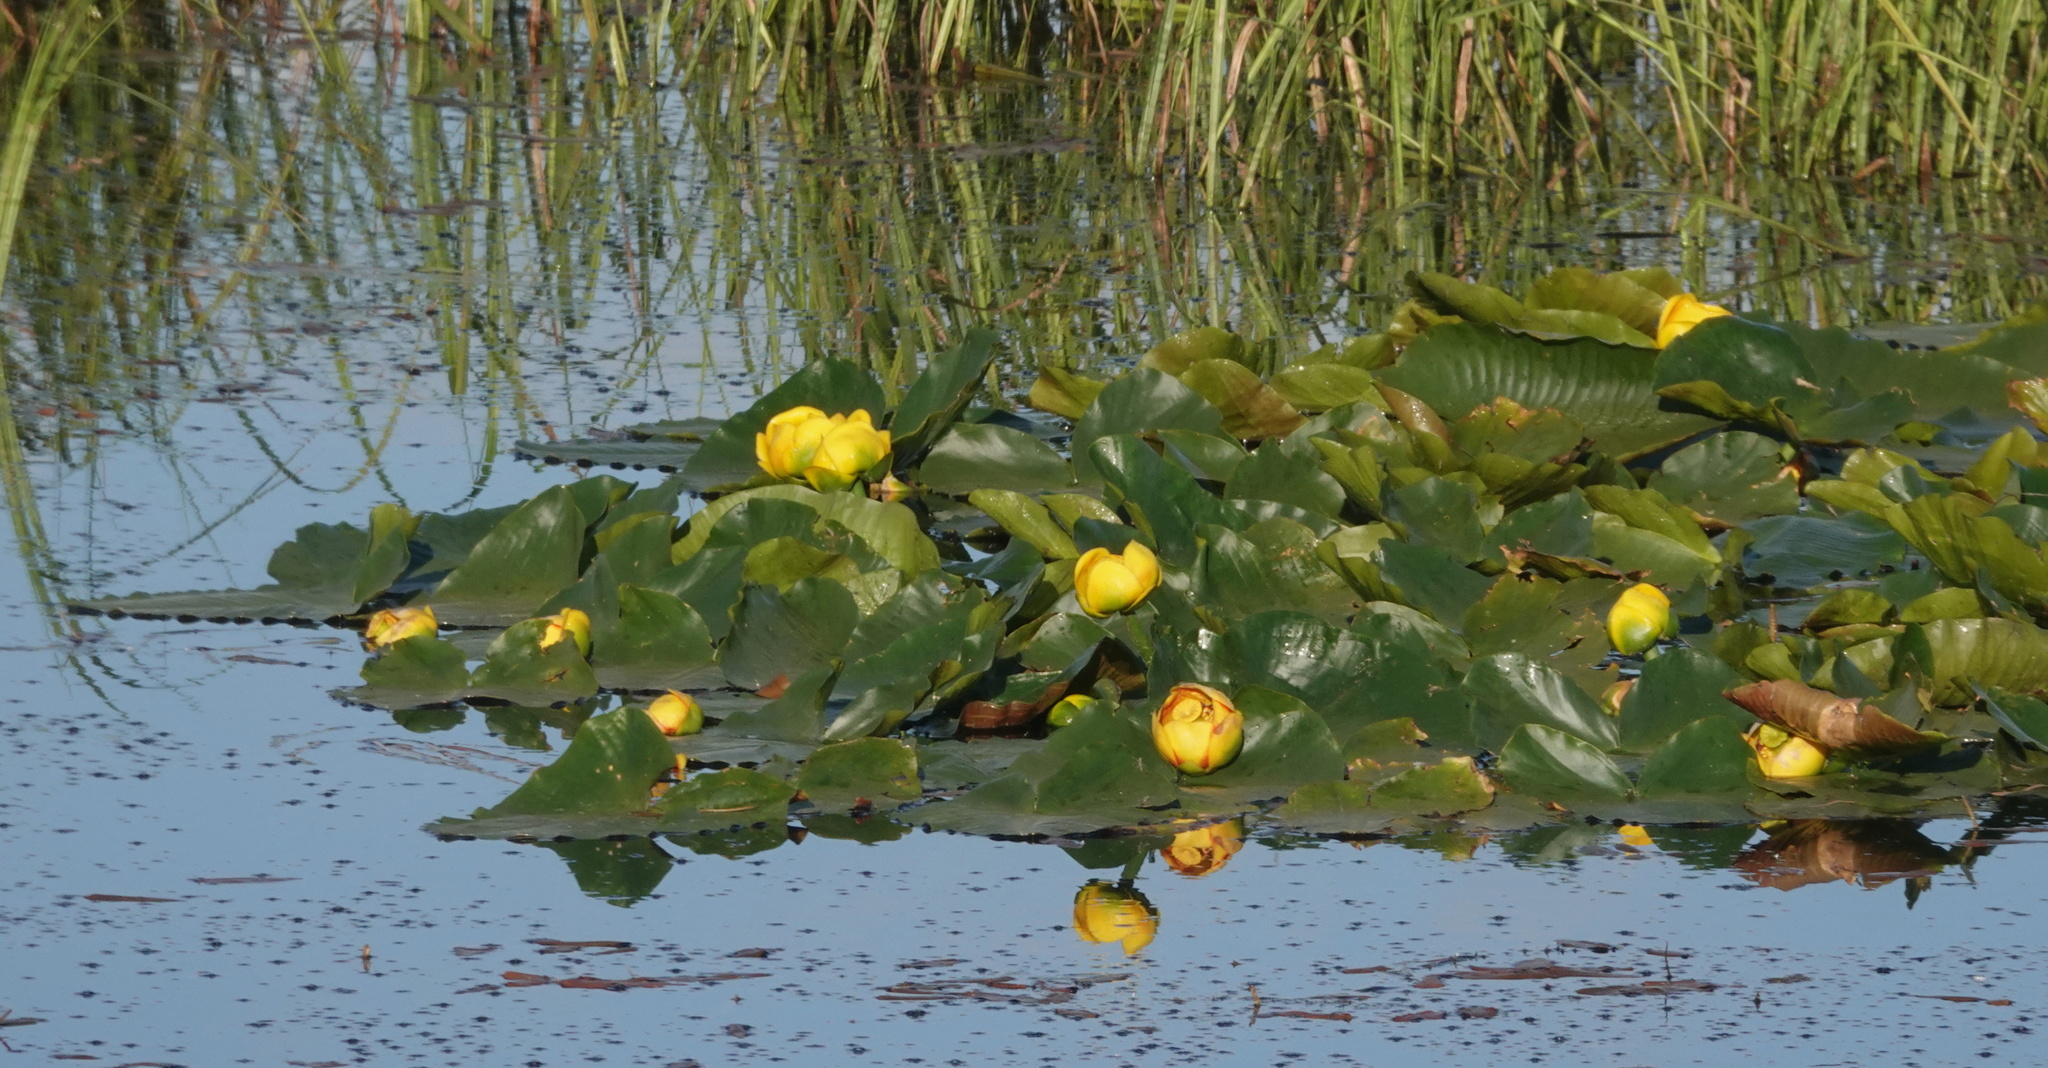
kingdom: Plantae
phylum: Tracheophyta
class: Magnoliopsida
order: Nymphaeales
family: Nymphaeaceae
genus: Nuphar
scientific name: Nuphar polysepala
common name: Rocky mountain cow-lily
